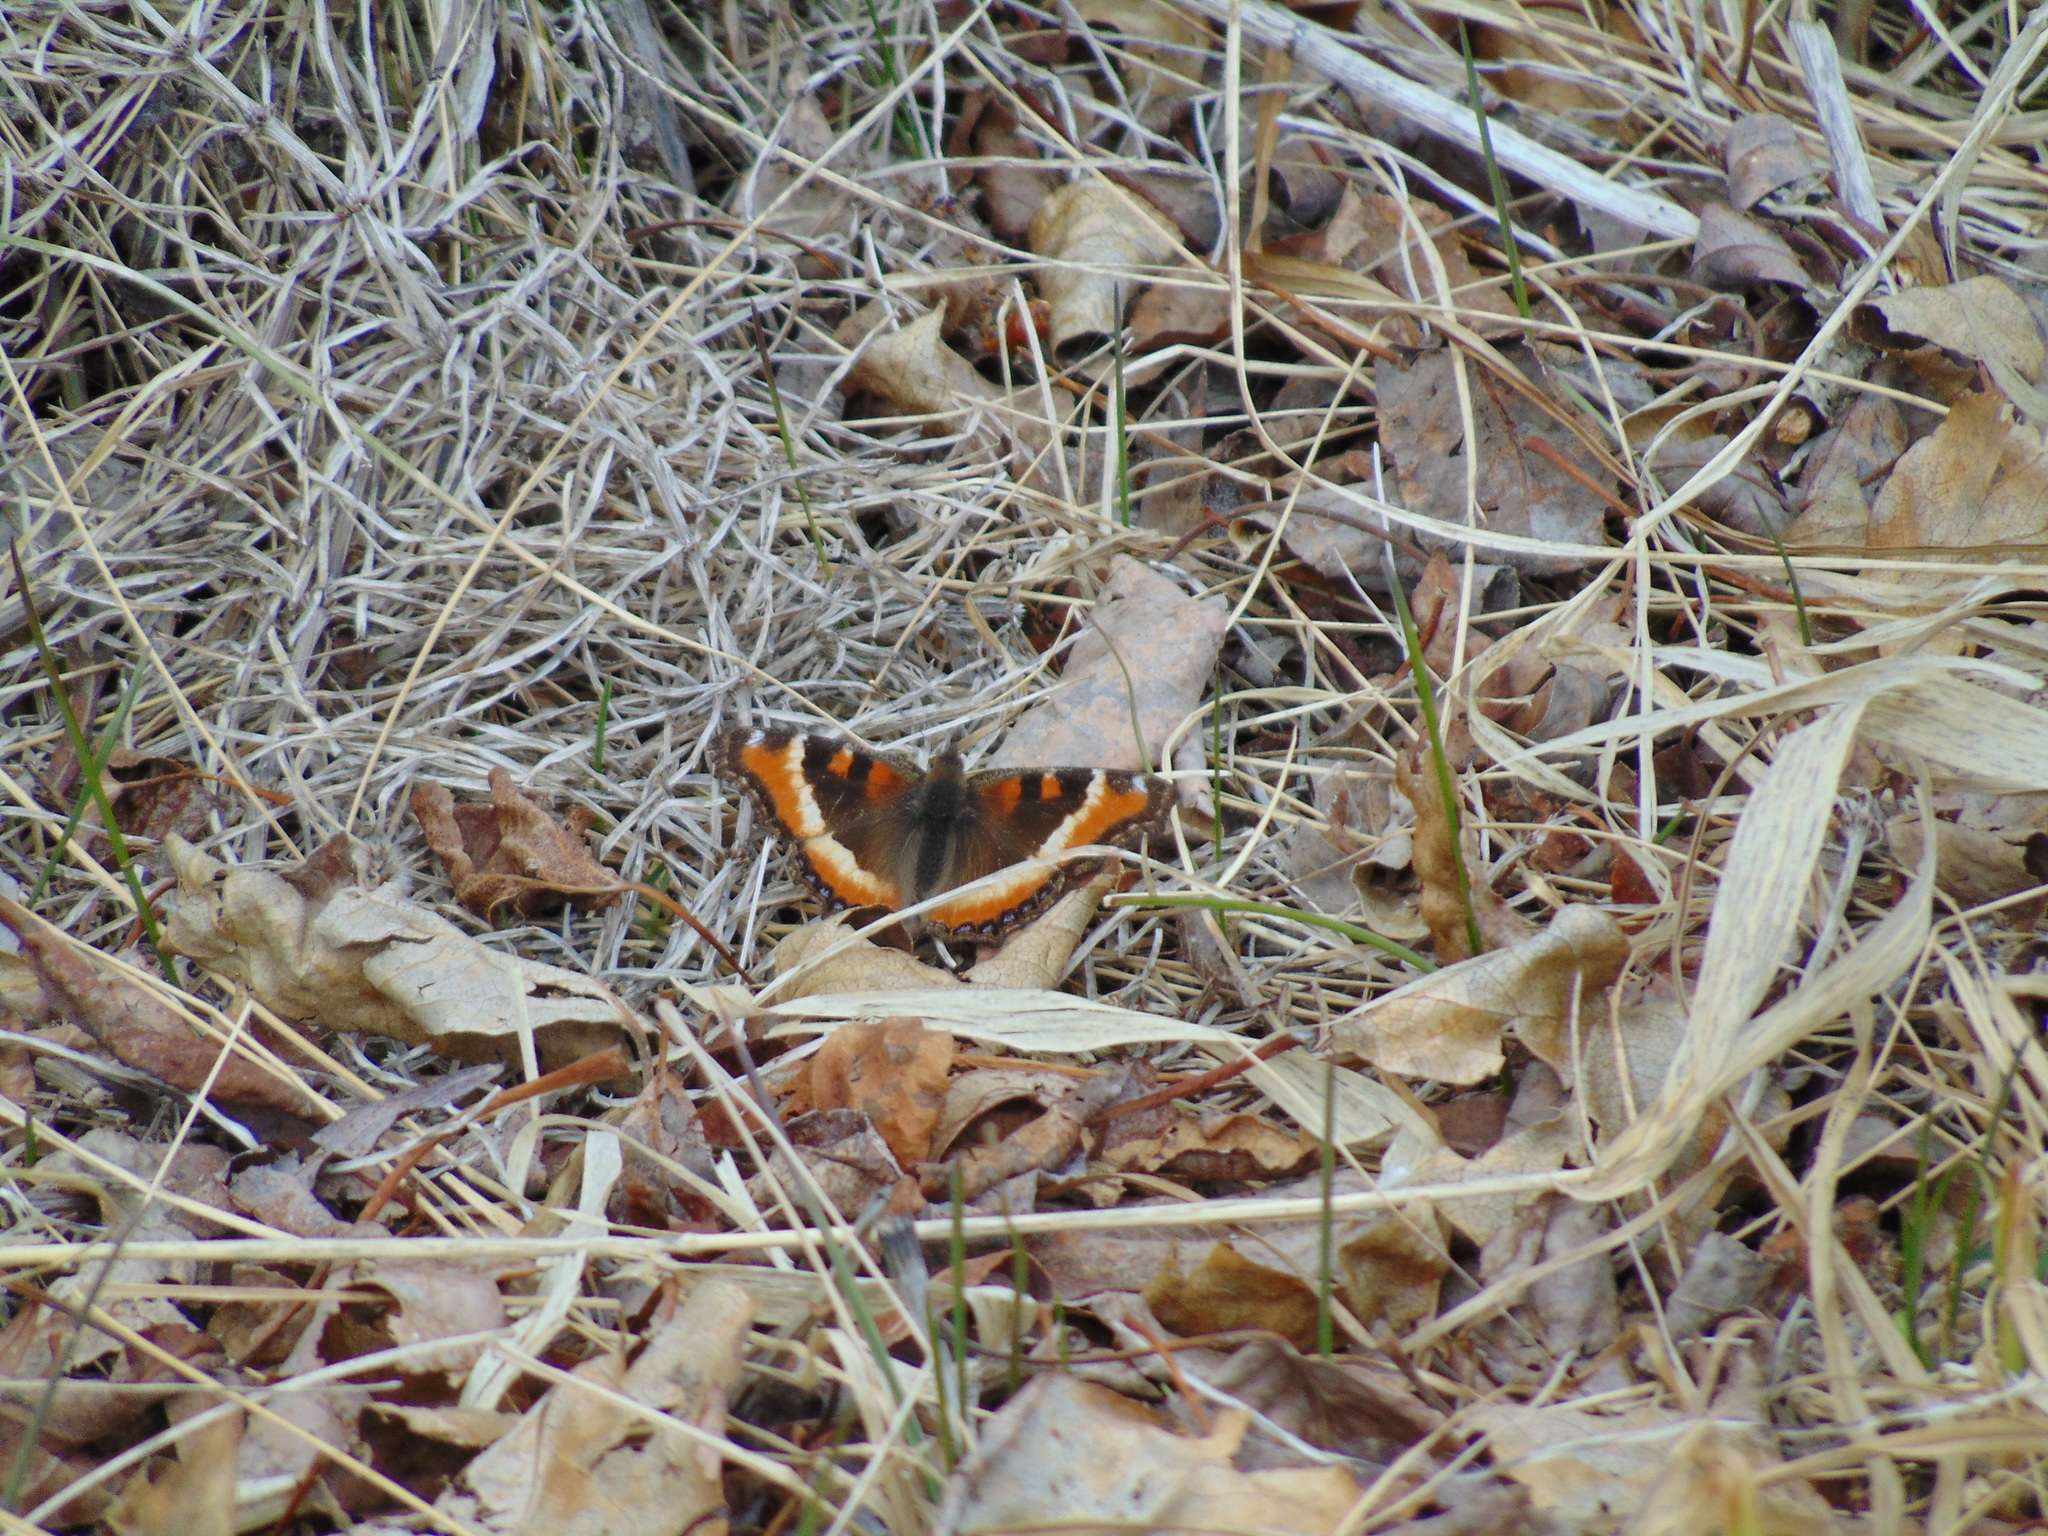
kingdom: Animalia
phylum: Arthropoda
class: Insecta
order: Lepidoptera
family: Nymphalidae
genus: Aglais
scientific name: Aglais milberti
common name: Milbert's tortoiseshell
